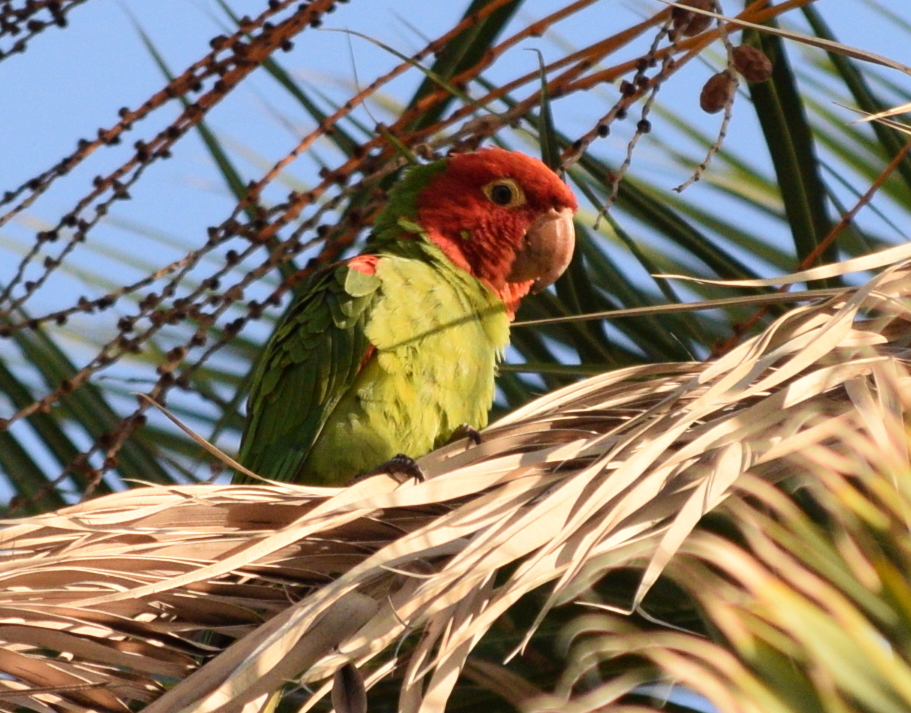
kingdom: Animalia
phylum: Chordata
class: Aves
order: Psittaciformes
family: Psittacidae
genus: Aratinga
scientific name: Aratinga erythrogenys
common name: Red-masked parakeet
